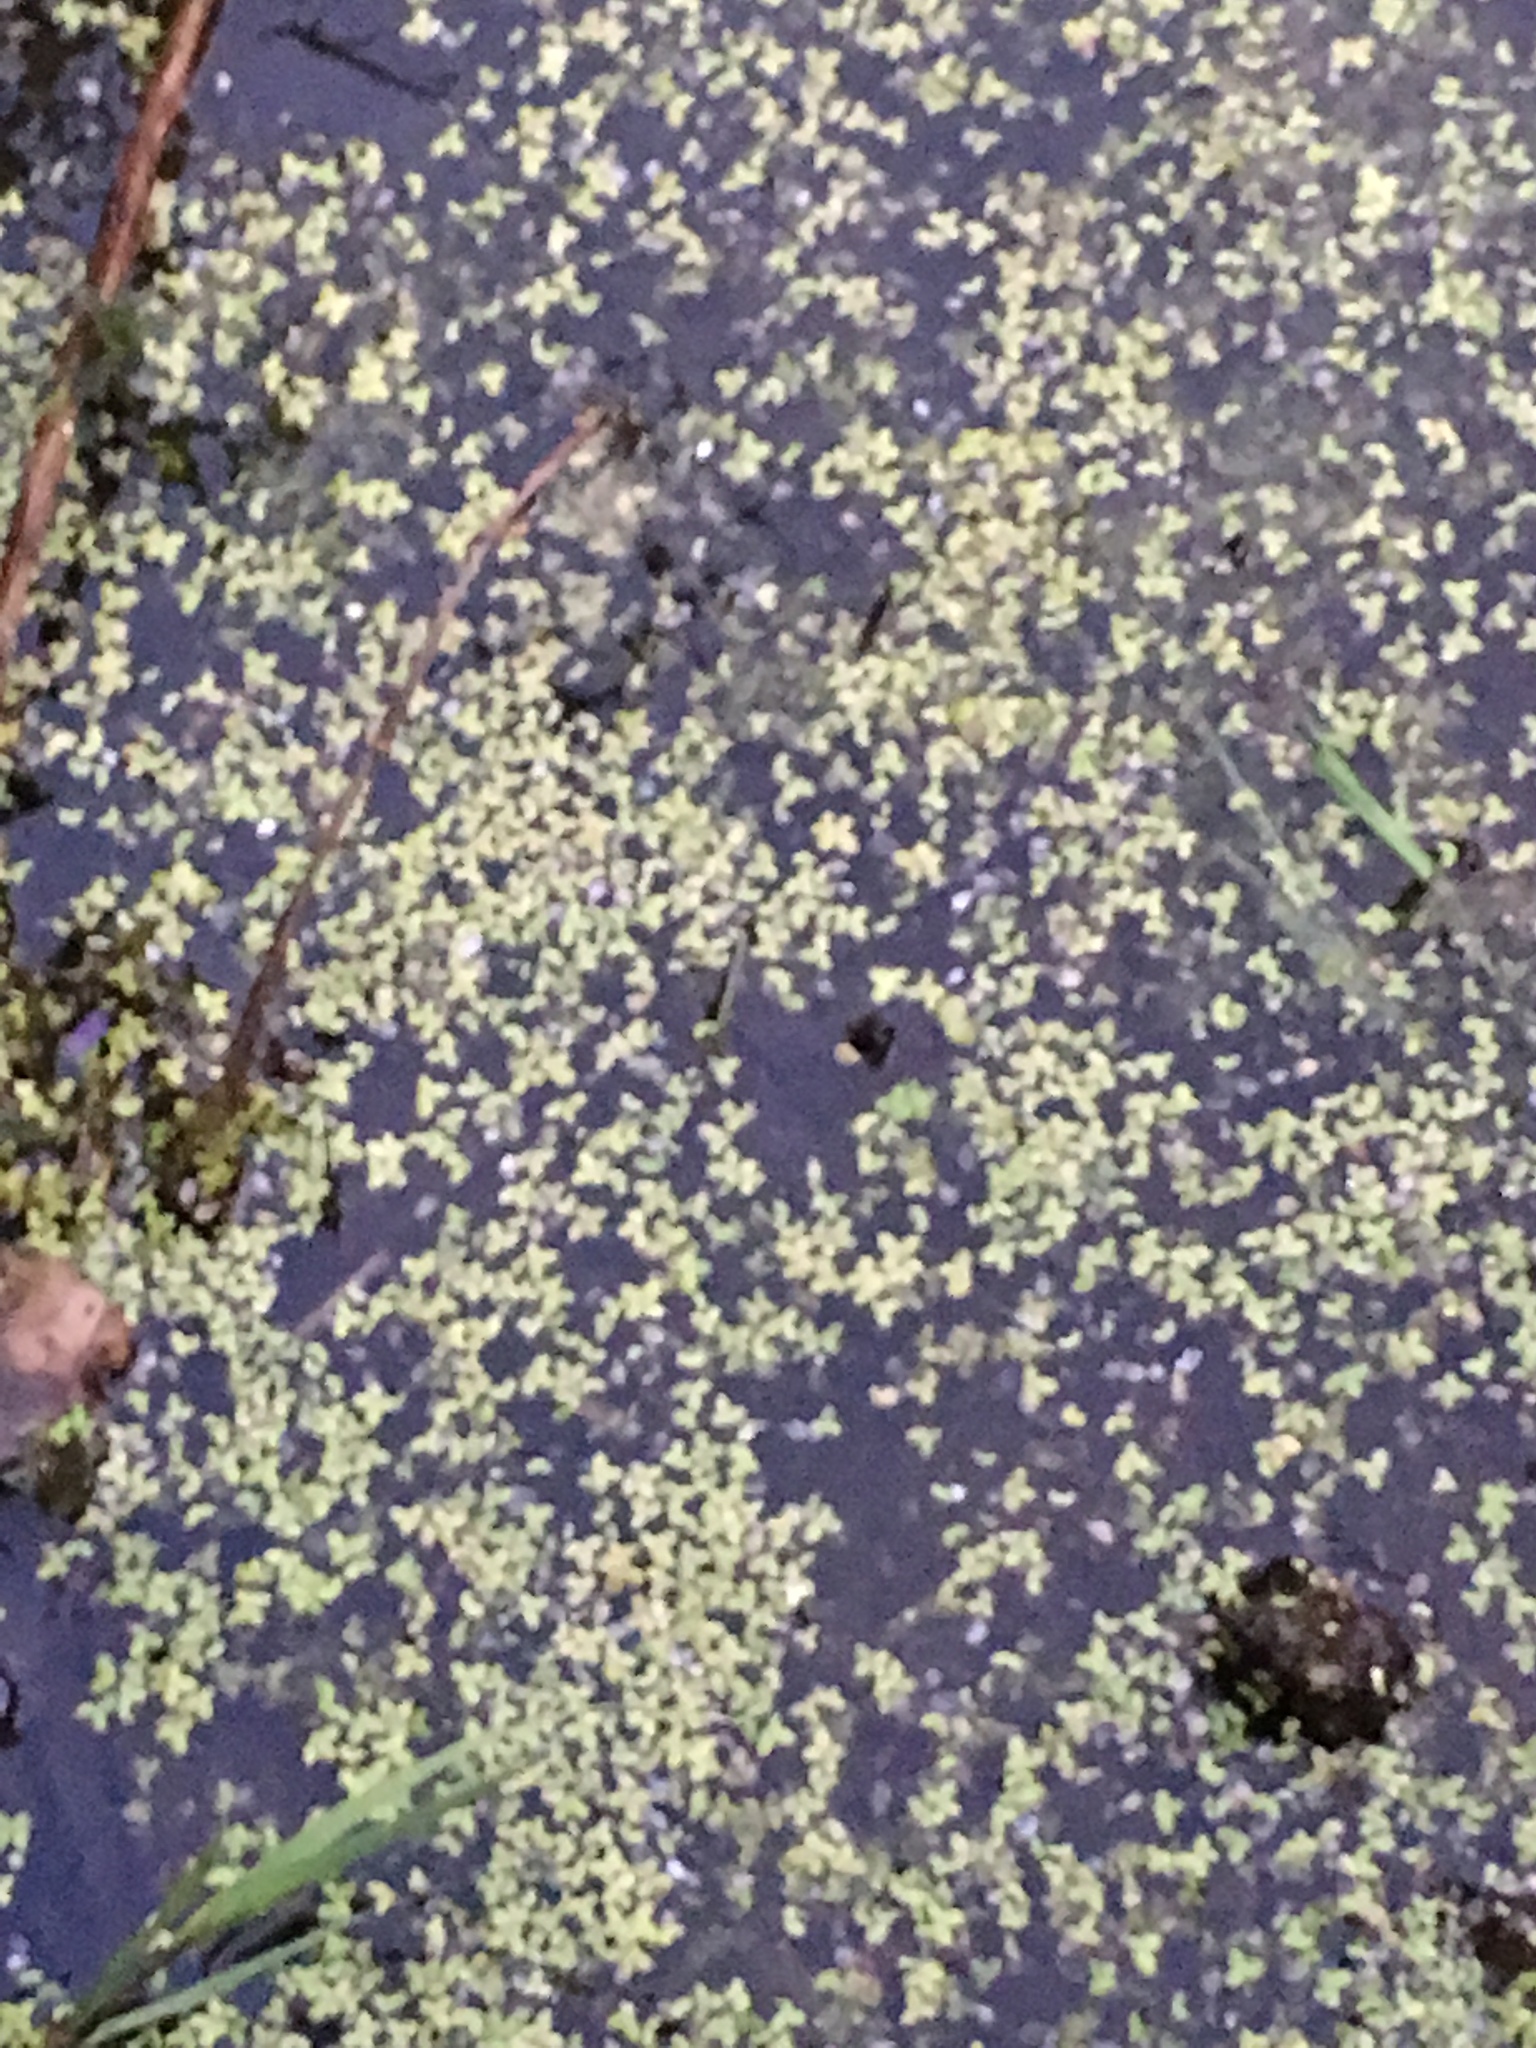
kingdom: Plantae
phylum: Tracheophyta
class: Liliopsida
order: Alismatales
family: Araceae
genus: Lemna
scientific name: Lemna minor
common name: Common duckweed
